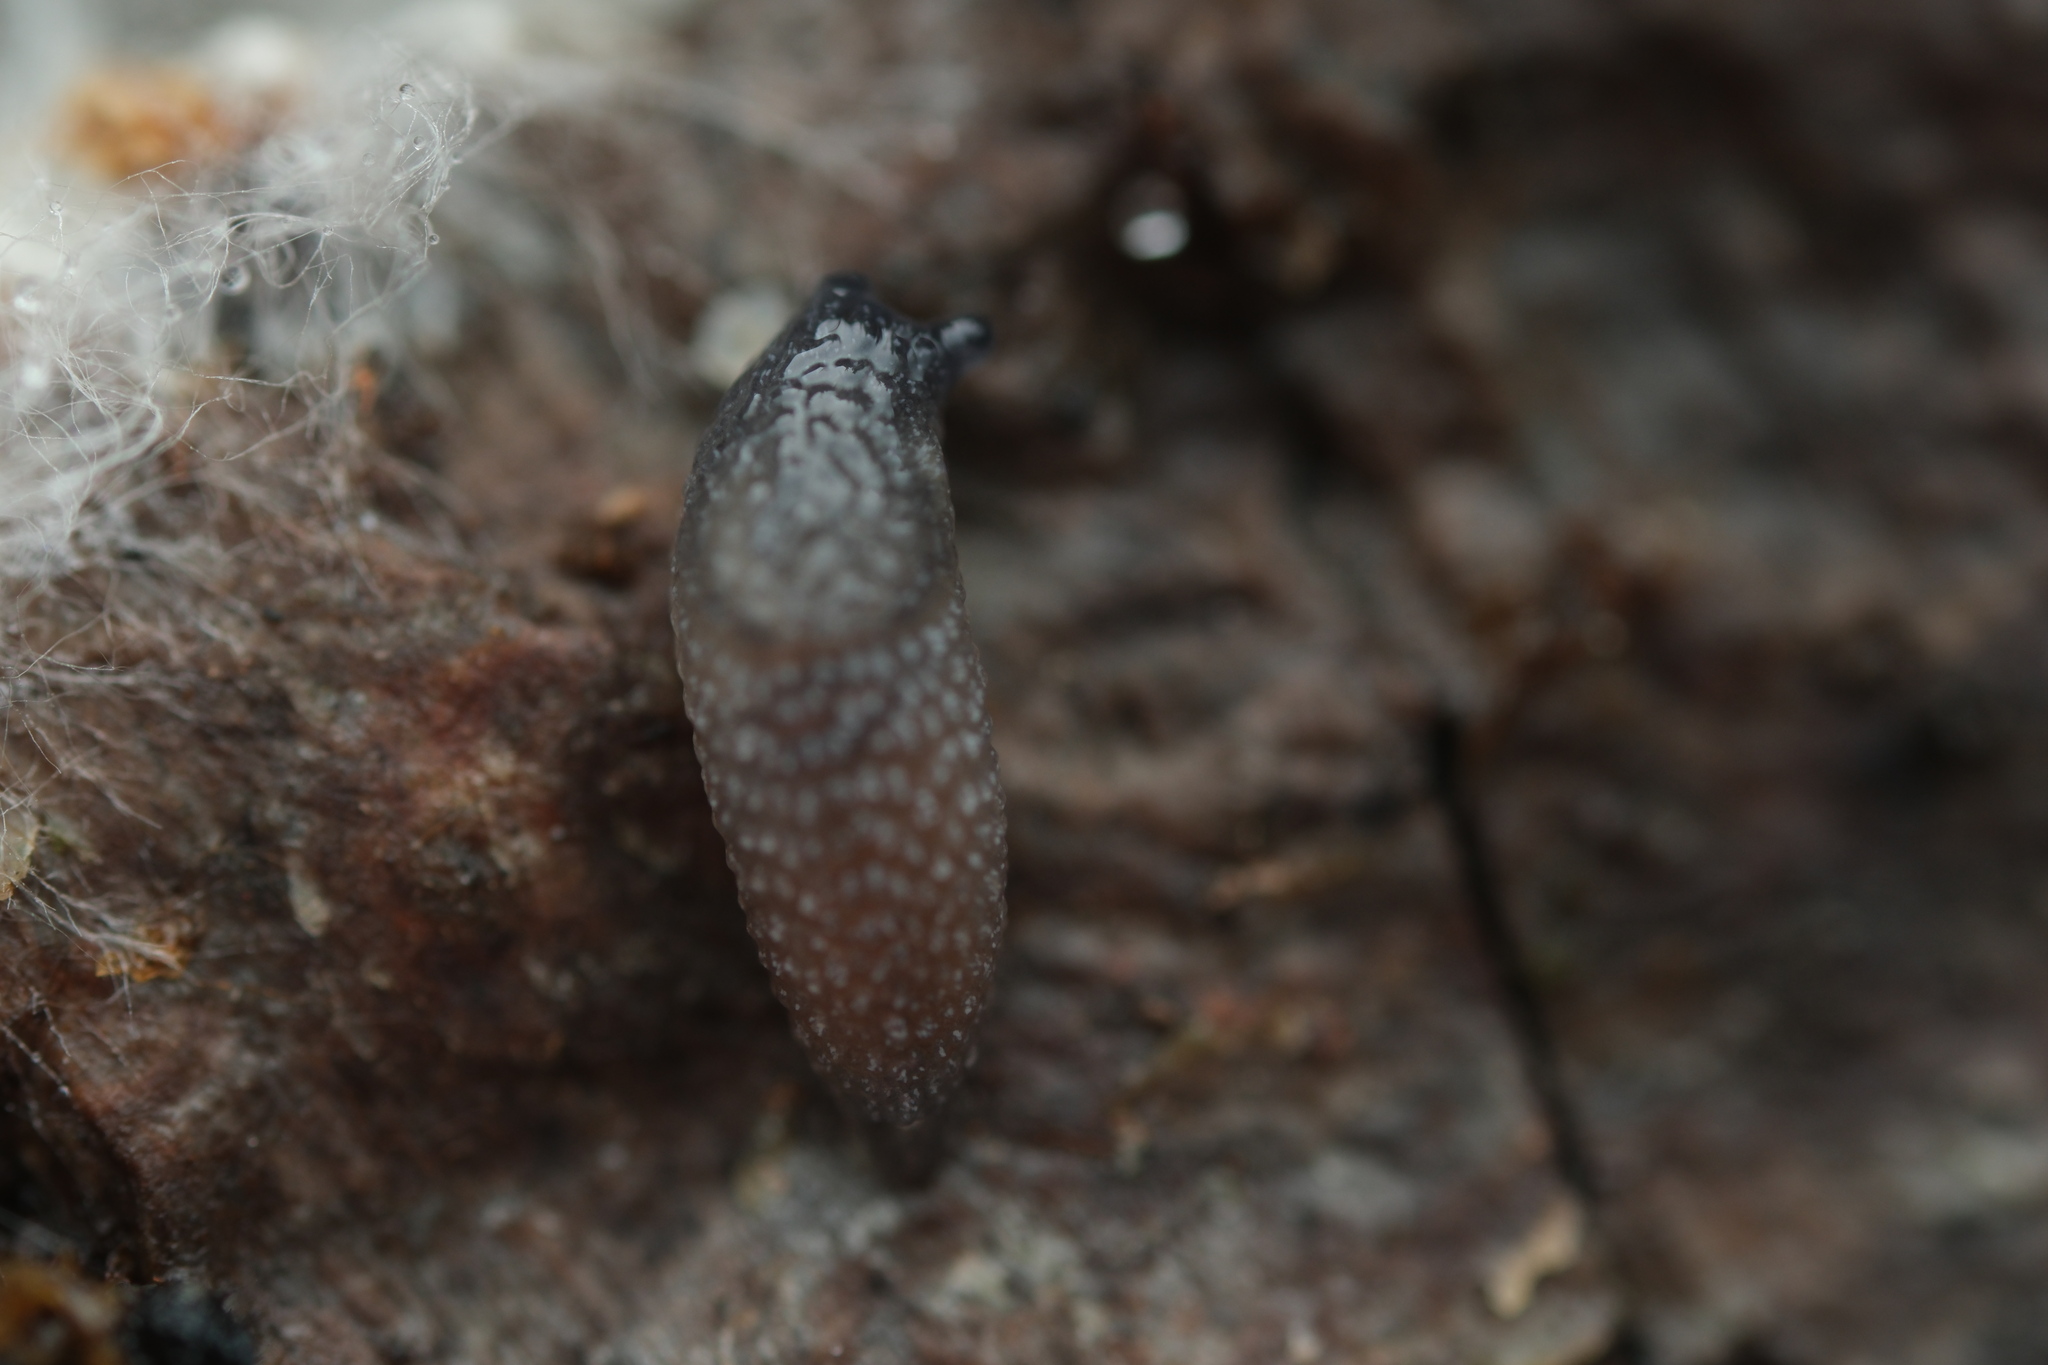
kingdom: Animalia
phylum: Mollusca
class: Gastropoda
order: Stylommatophora
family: Arionidae
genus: Arion
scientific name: Arion intermedius
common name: Hedgehog slug
